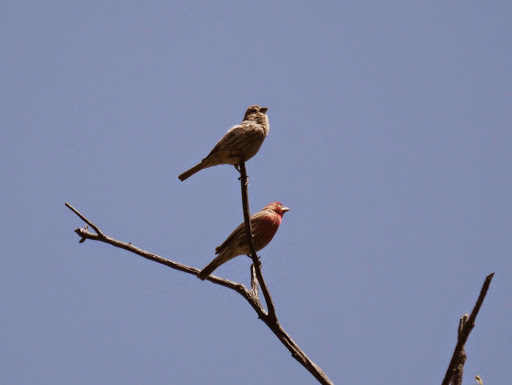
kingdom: Animalia
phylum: Chordata
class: Aves
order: Passeriformes
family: Fringillidae
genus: Haemorhous
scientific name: Haemorhous mexicanus
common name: House finch
